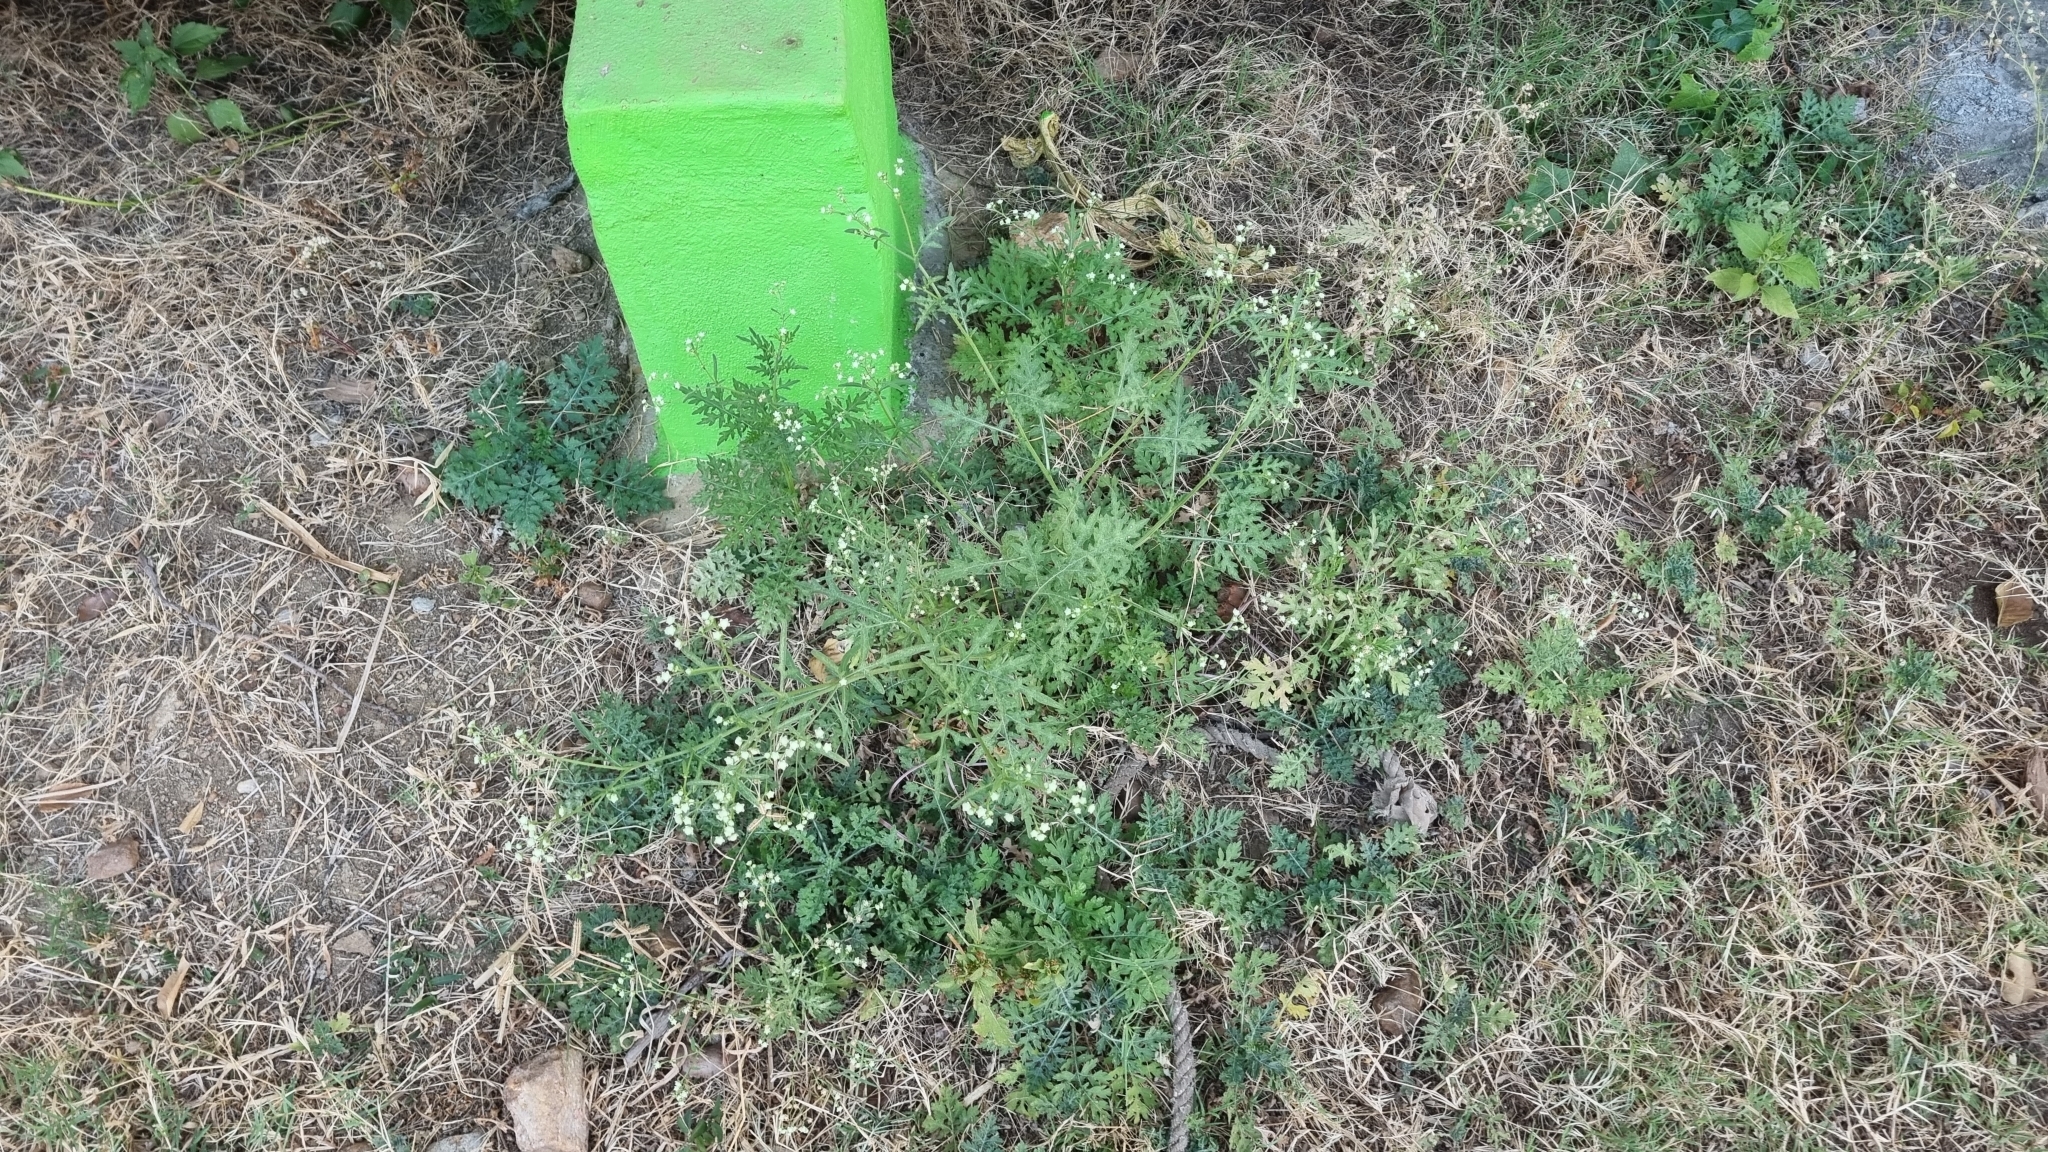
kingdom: Plantae
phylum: Tracheophyta
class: Magnoliopsida
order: Asterales
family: Asteraceae
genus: Parthenium
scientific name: Parthenium hysterophorus
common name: Santa maria feverfew
